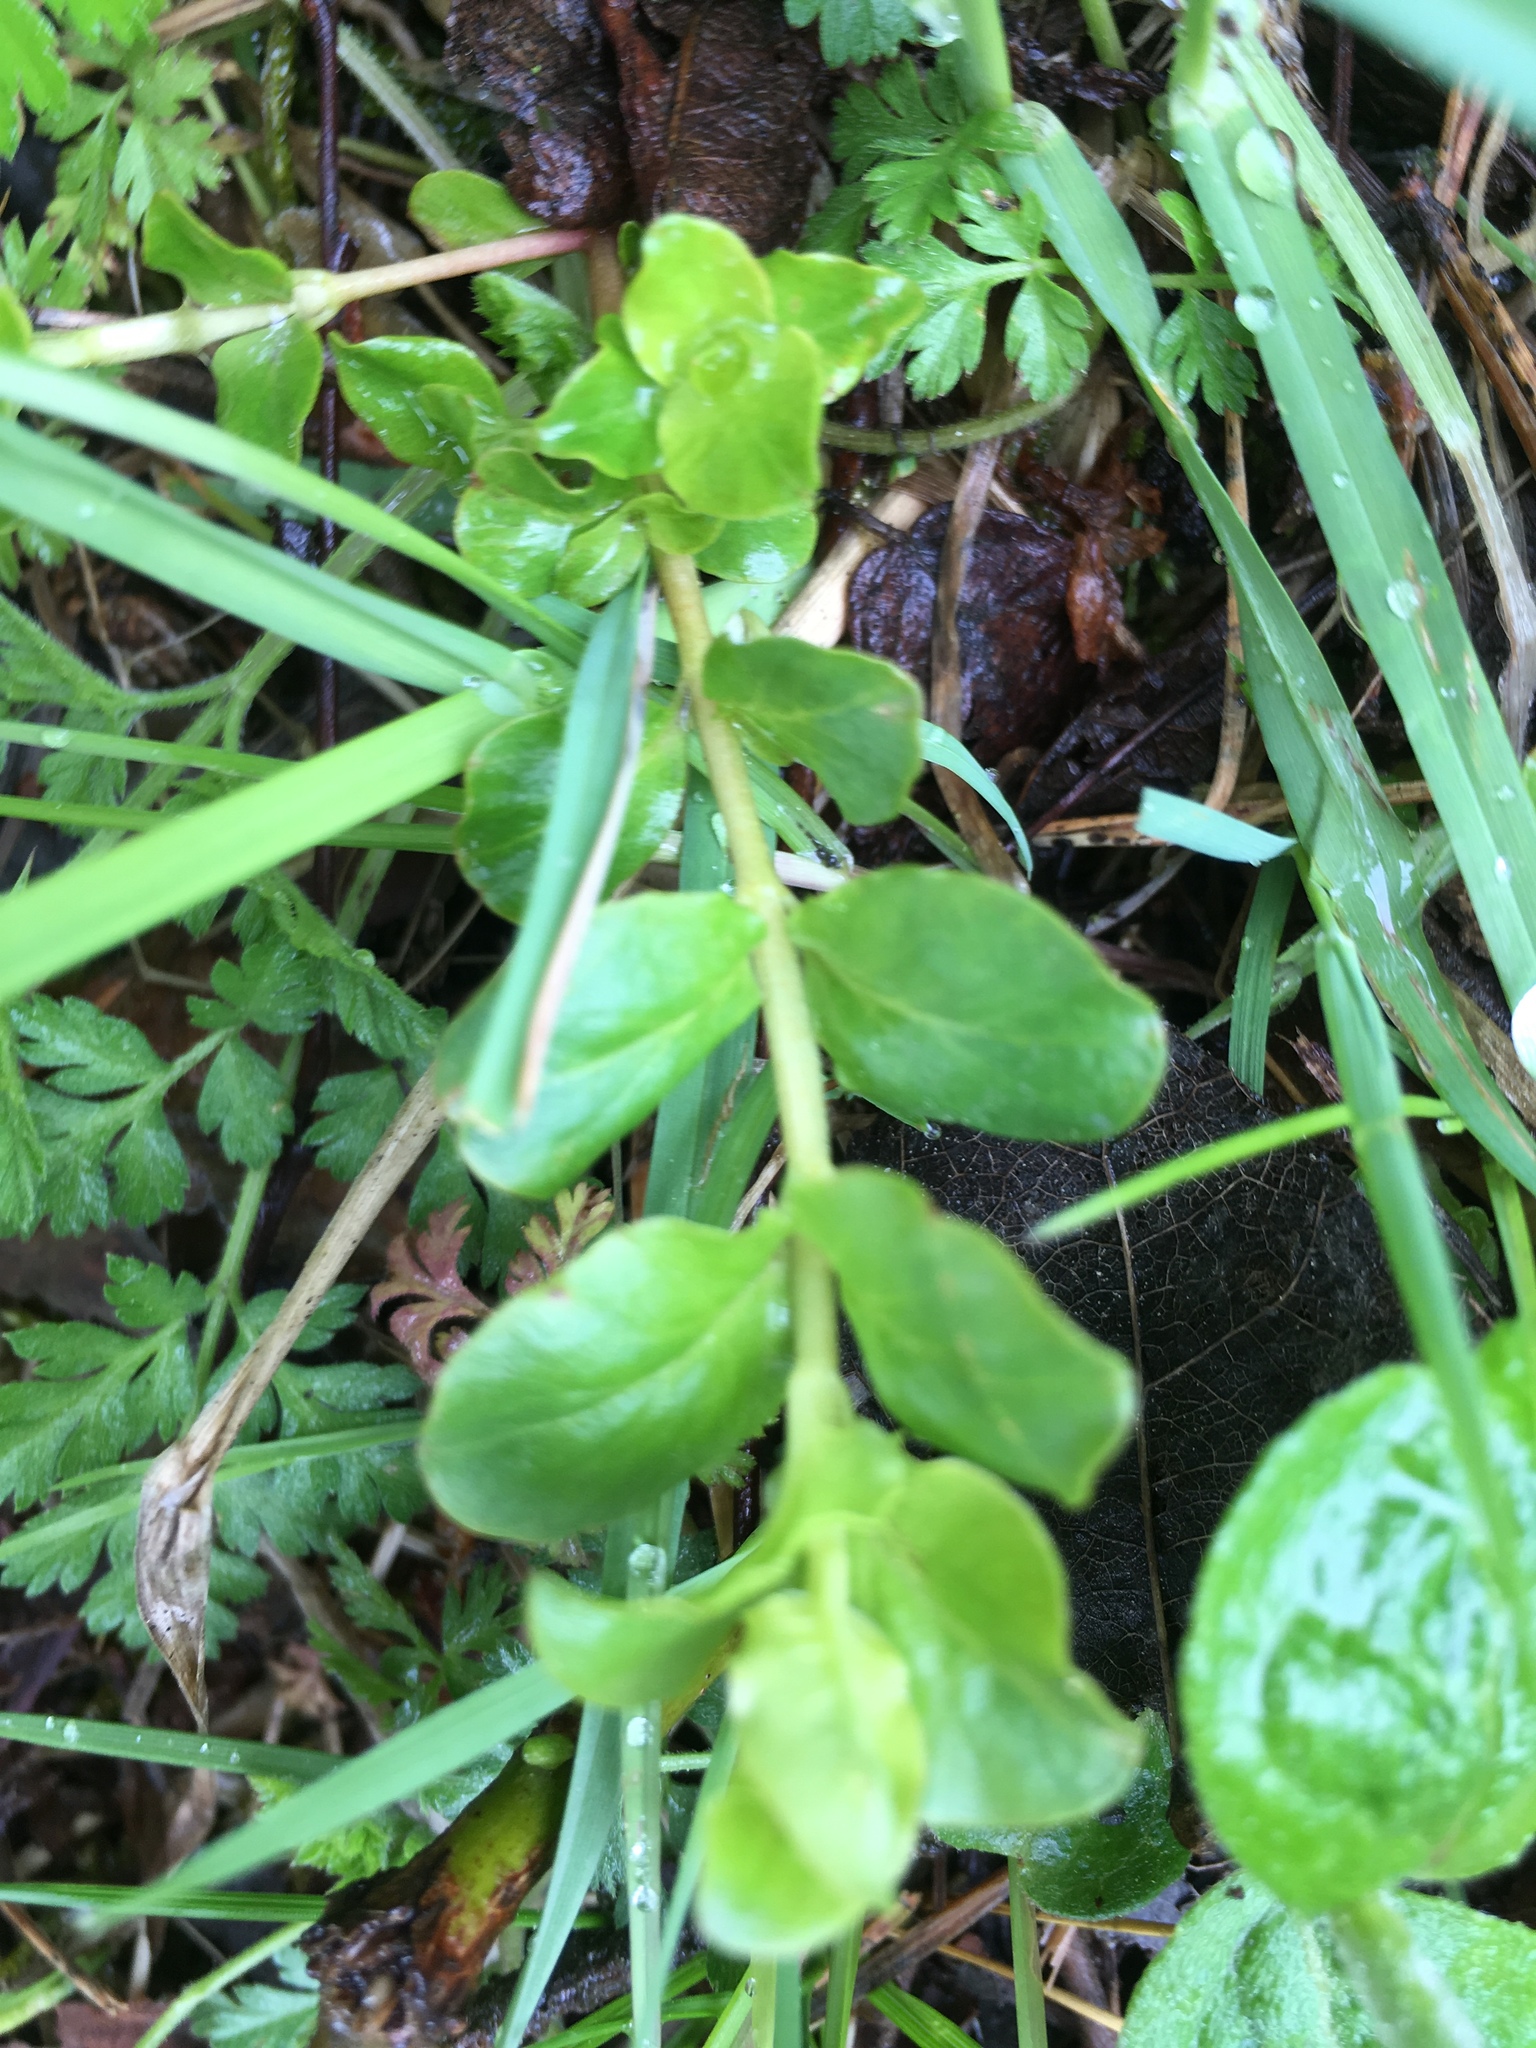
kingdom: Plantae
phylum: Tracheophyta
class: Magnoliopsida
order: Ericales
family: Primulaceae
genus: Lysimachia
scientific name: Lysimachia nummularia
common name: Moneywort
